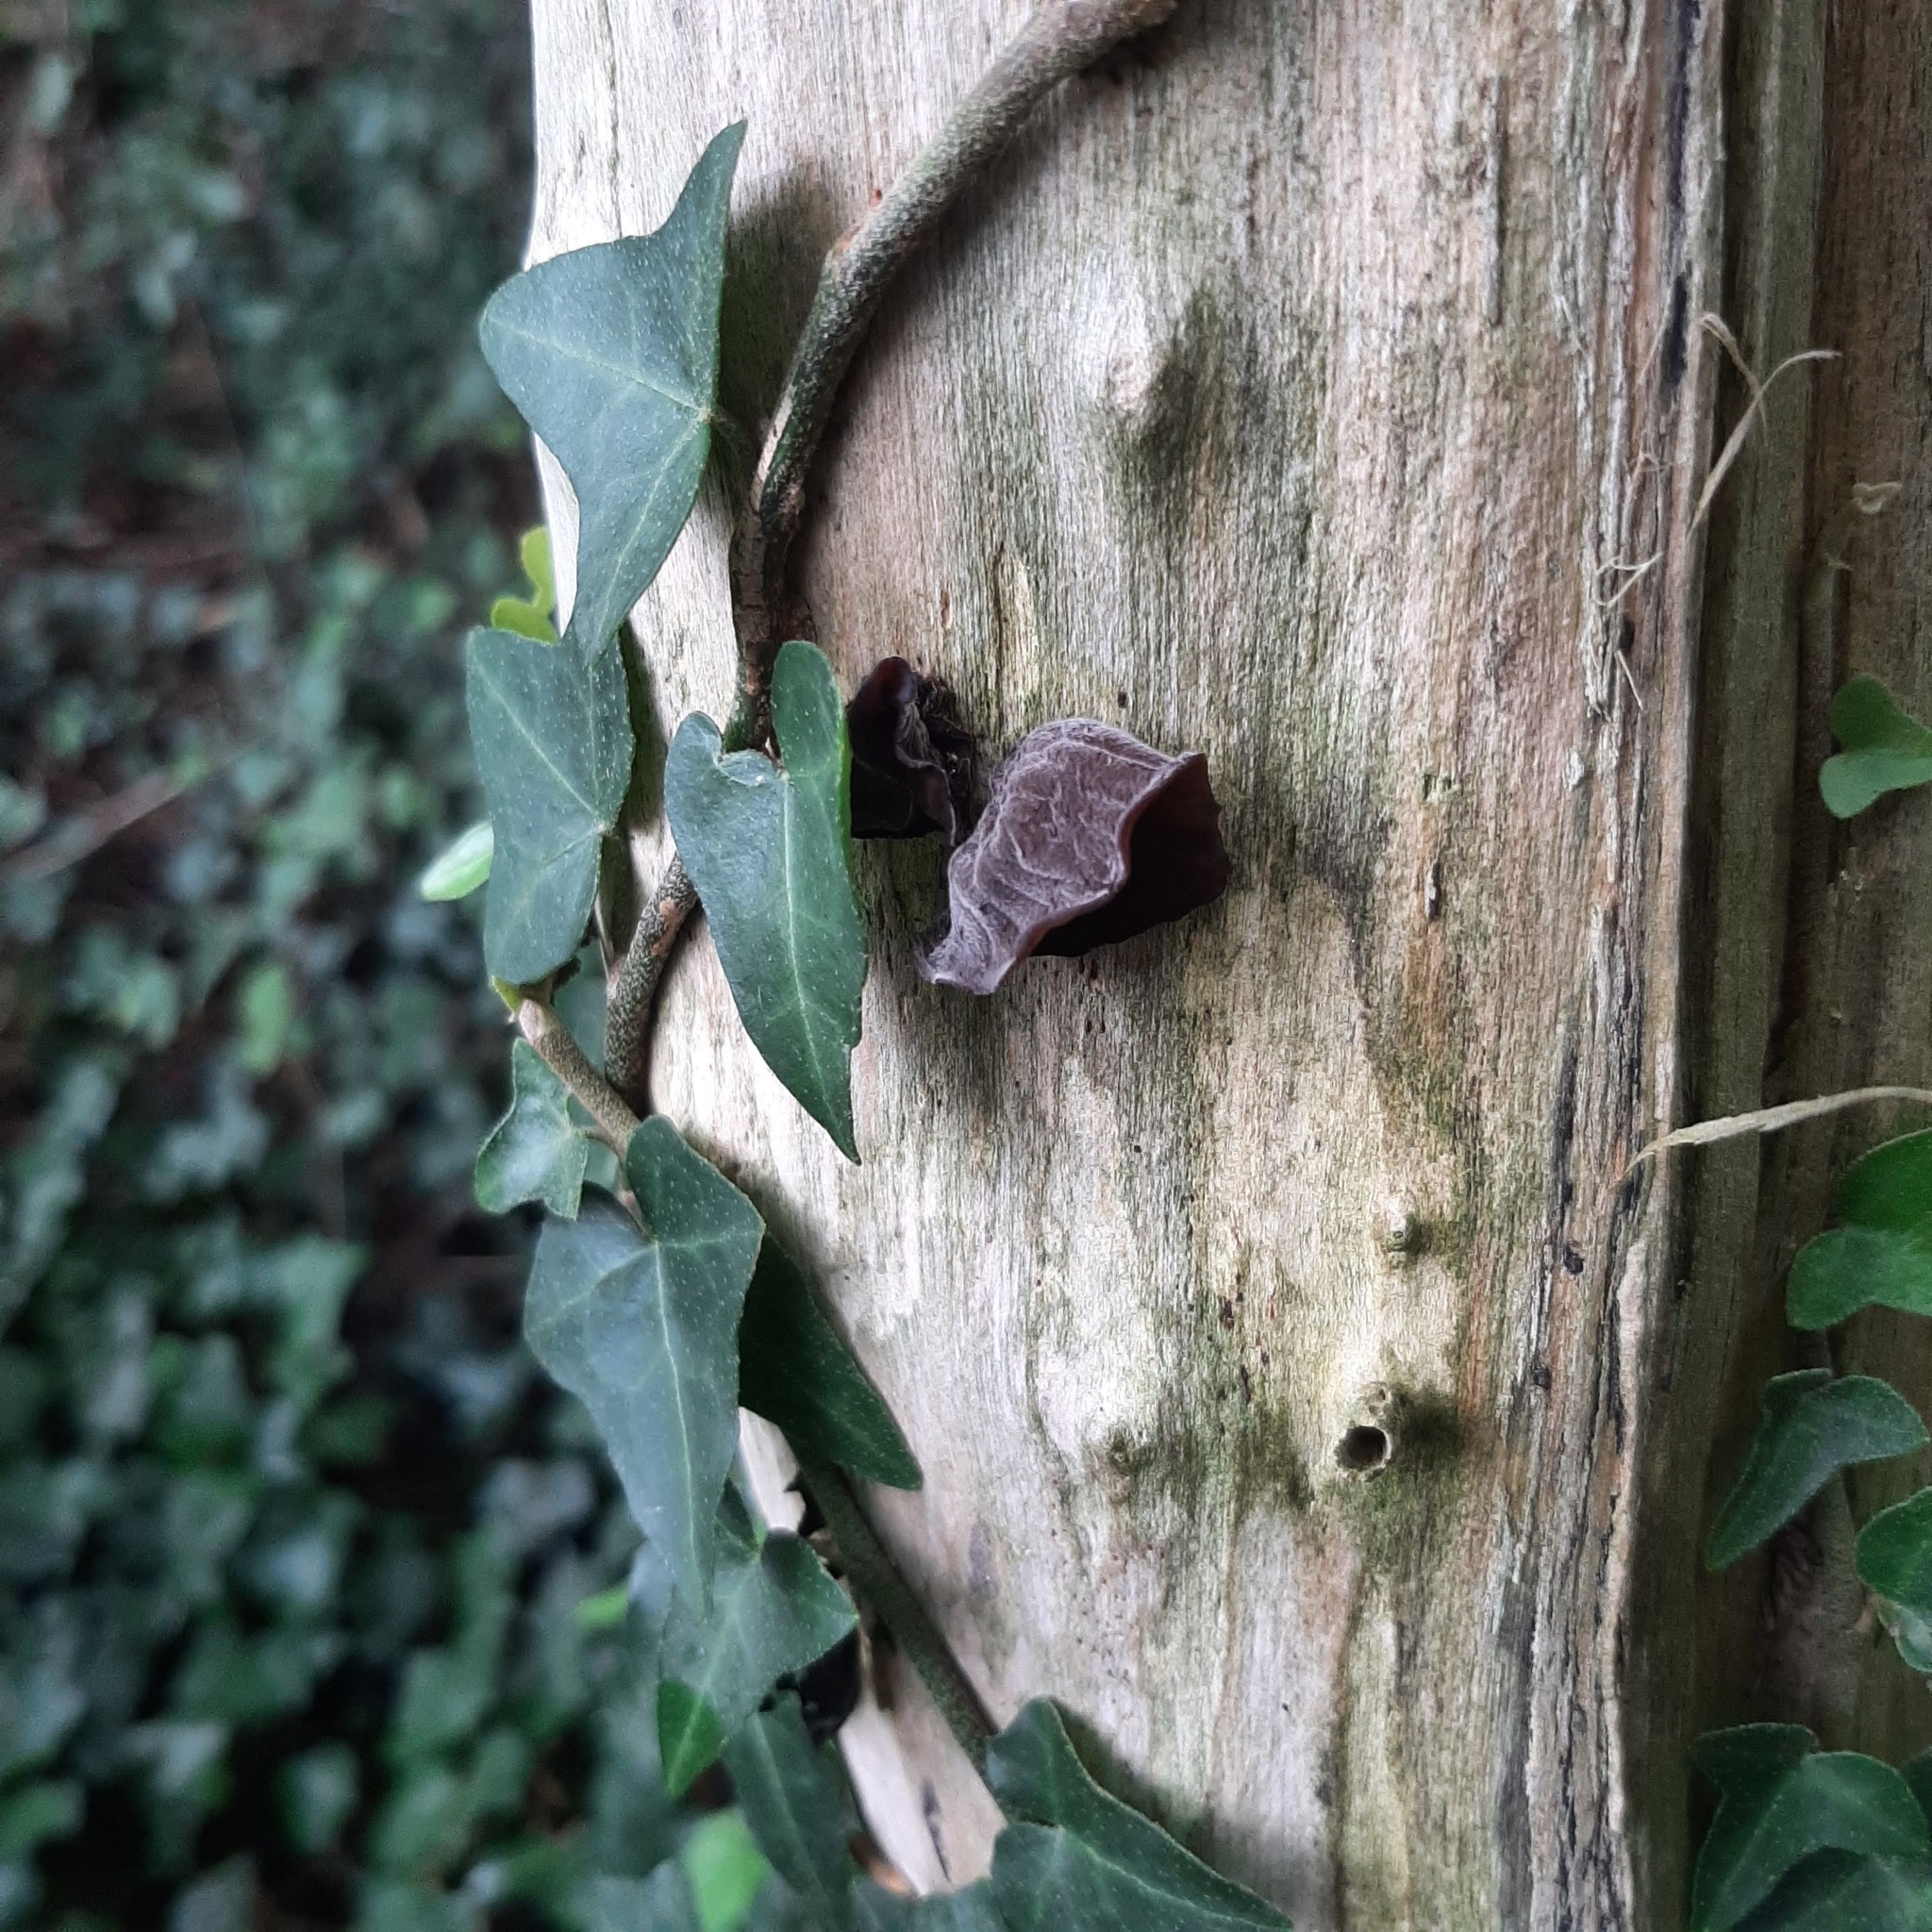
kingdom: Fungi
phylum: Basidiomycota
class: Agaricomycetes
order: Auriculariales
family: Auriculariaceae
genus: Auricularia
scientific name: Auricularia auricula-judae
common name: Jelly ear
